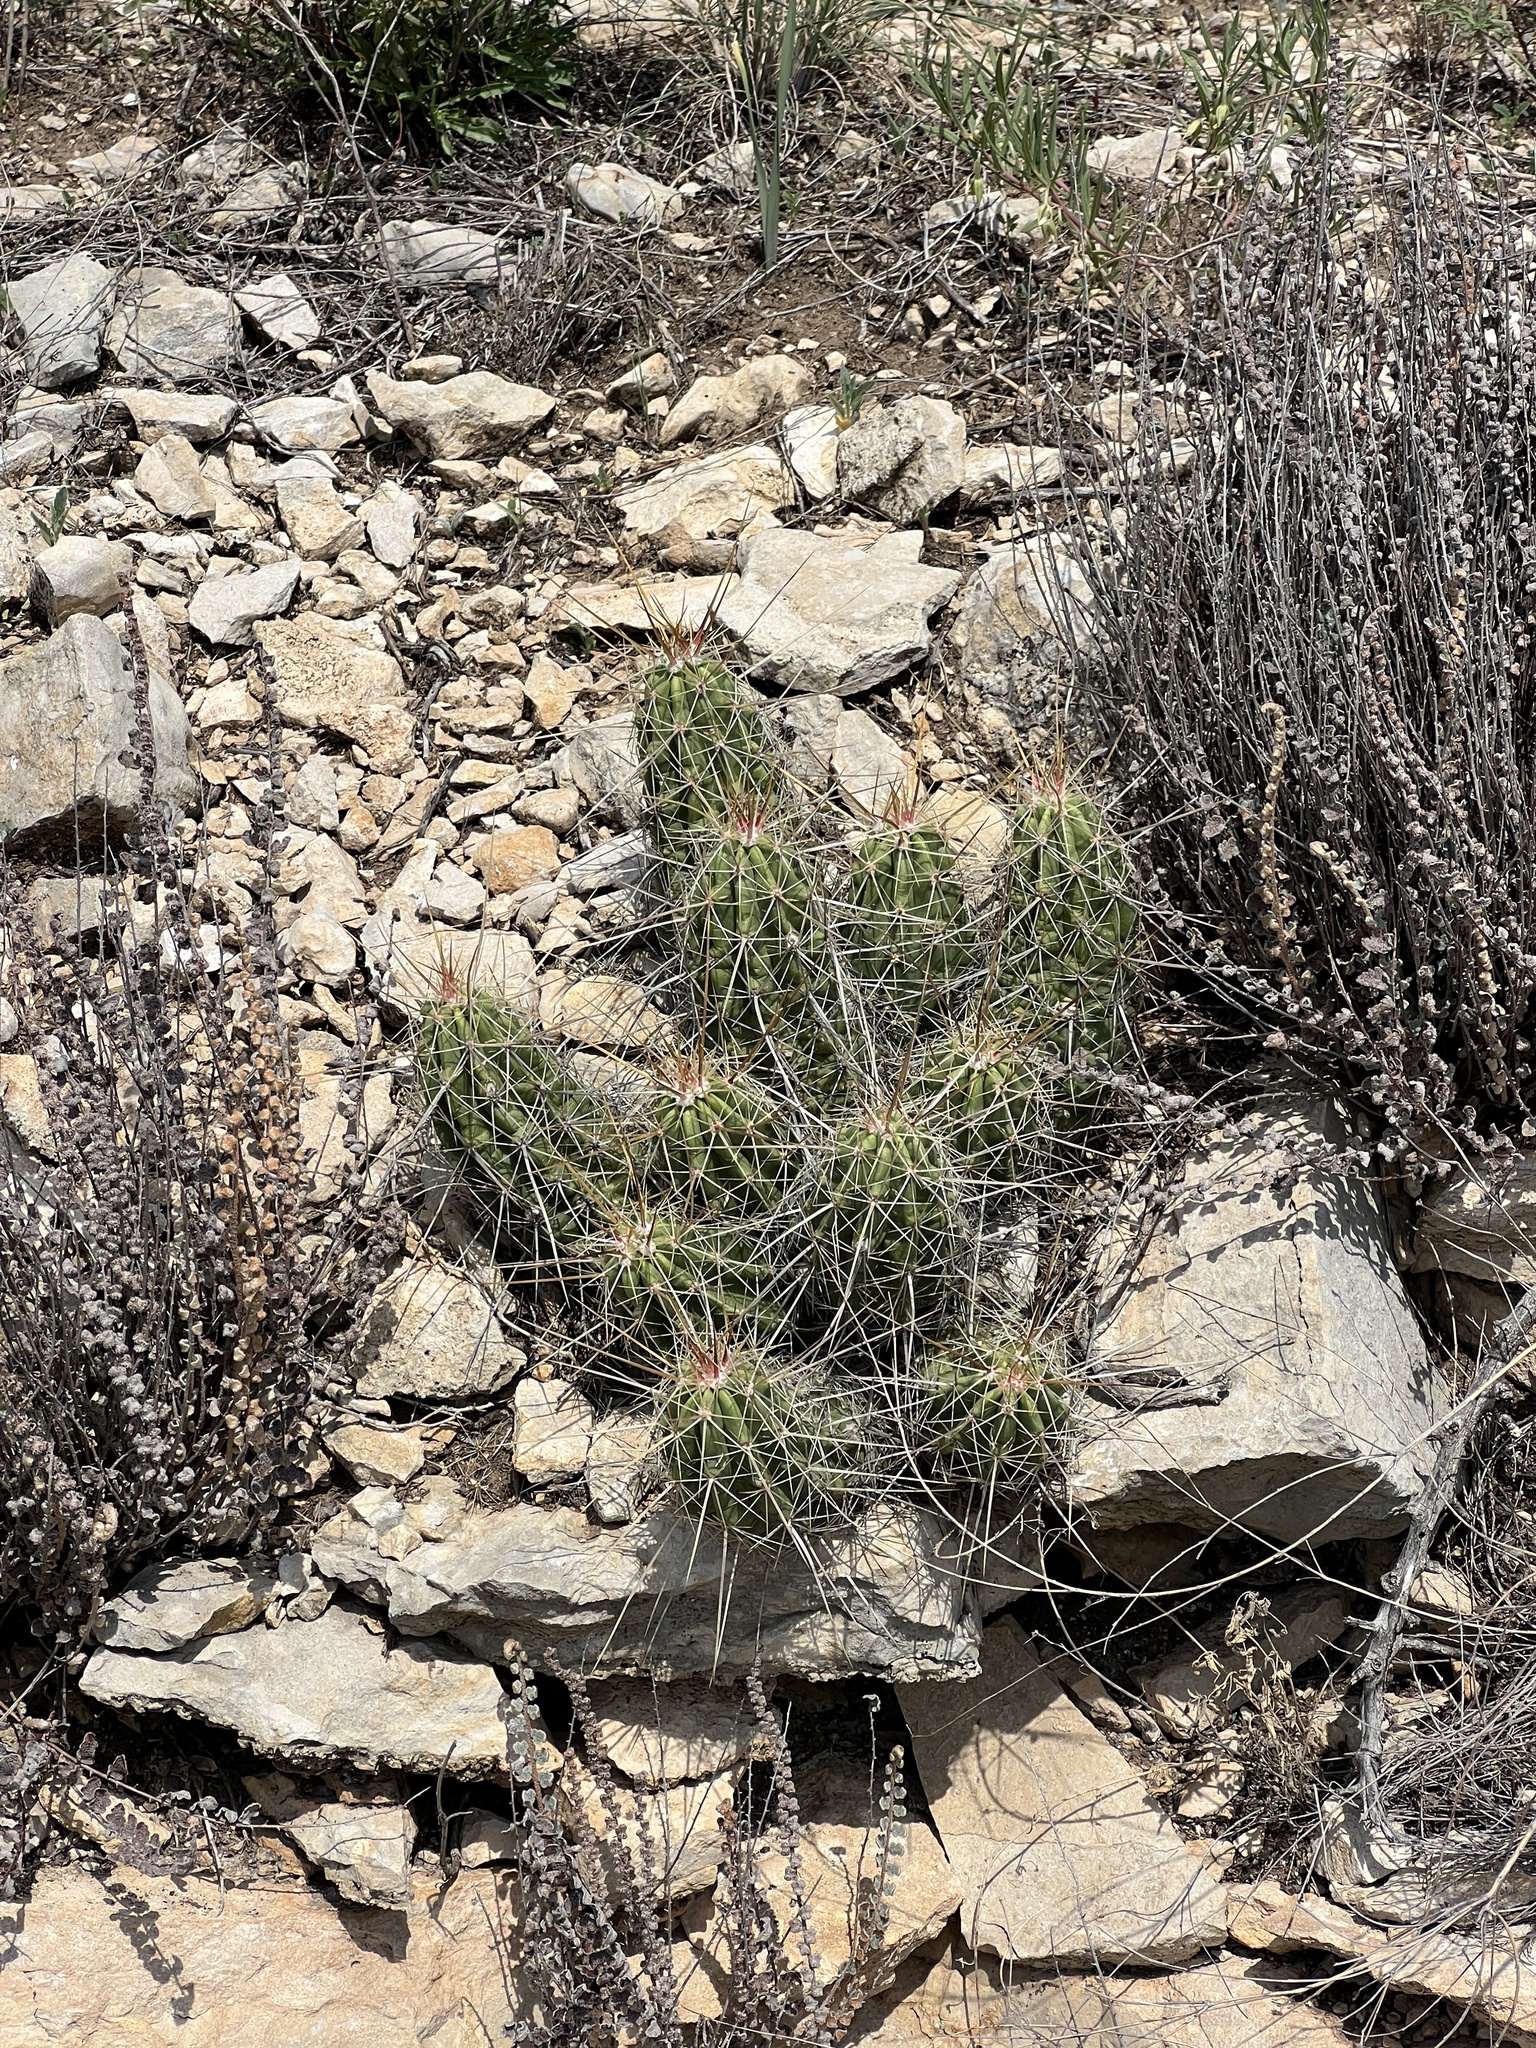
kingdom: Plantae
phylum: Tracheophyta
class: Magnoliopsida
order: Caryophyllales
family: Cactaceae
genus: Echinocereus
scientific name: Echinocereus enneacanthus
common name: Pitaya
